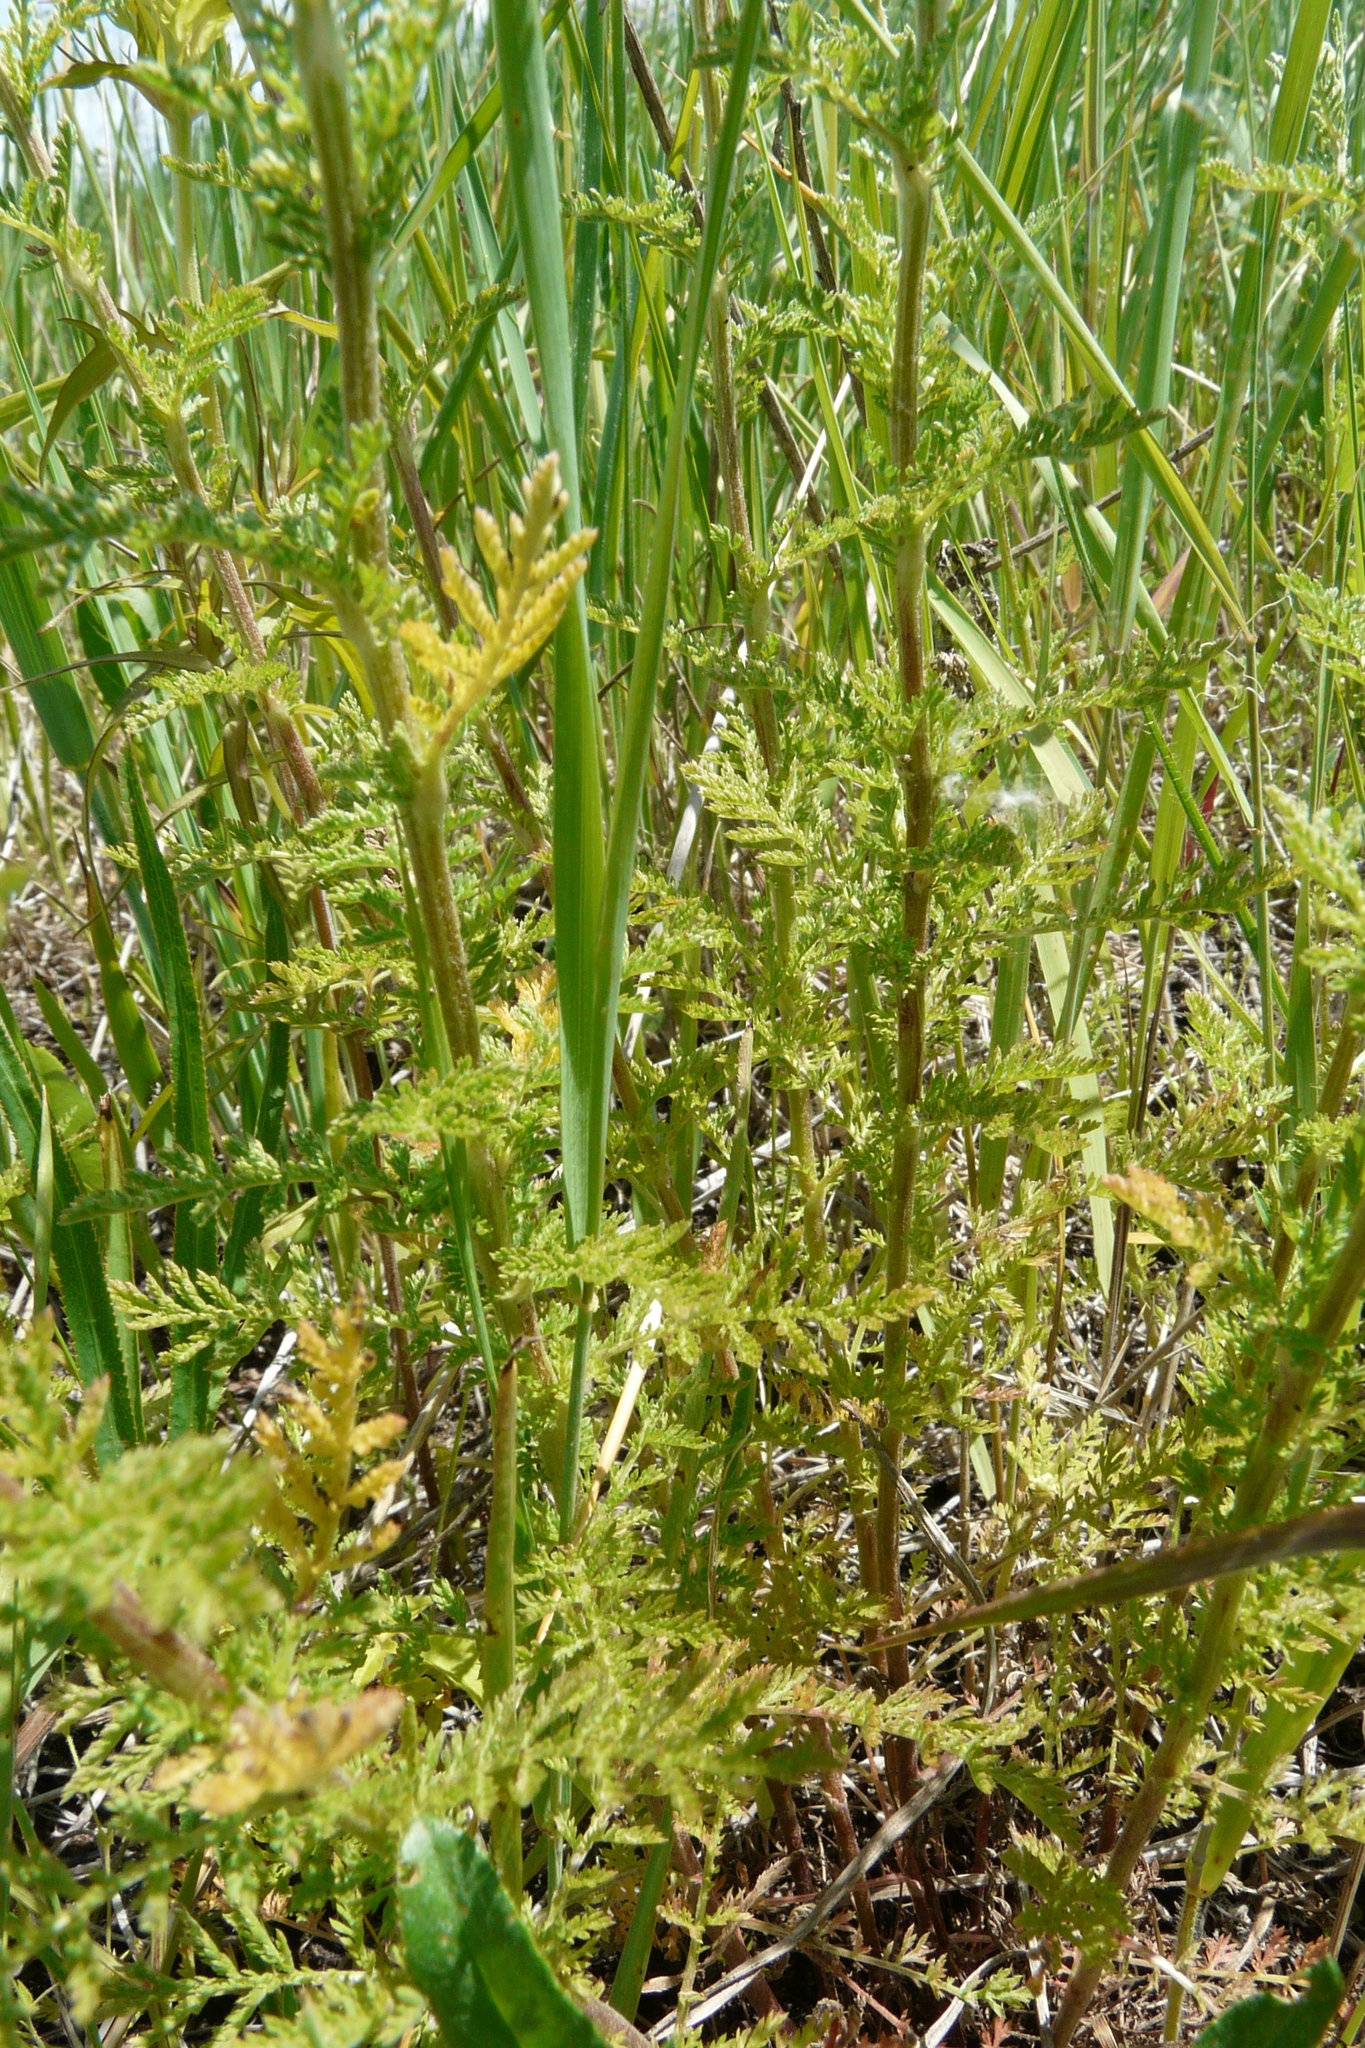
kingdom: Plantae
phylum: Tracheophyta
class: Magnoliopsida
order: Asterales
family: Asteraceae
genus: Achillea
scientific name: Achillea nobilis
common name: Noble yarrow
